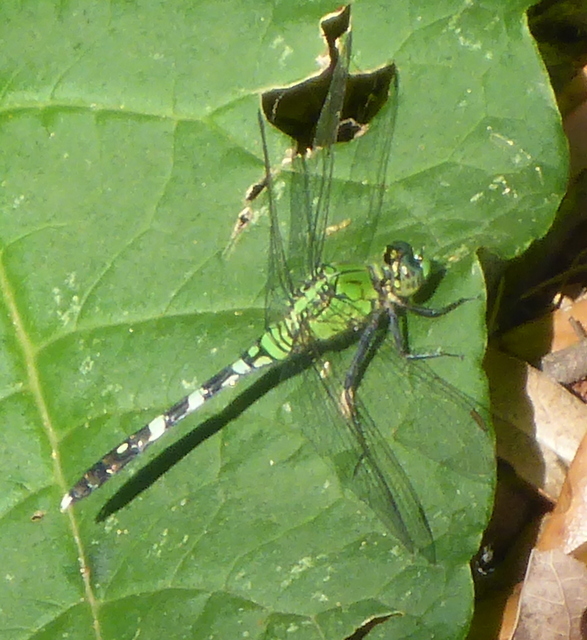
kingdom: Animalia
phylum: Arthropoda
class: Insecta
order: Odonata
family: Libellulidae
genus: Erythemis
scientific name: Erythemis simplicicollis
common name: Eastern pondhawk
